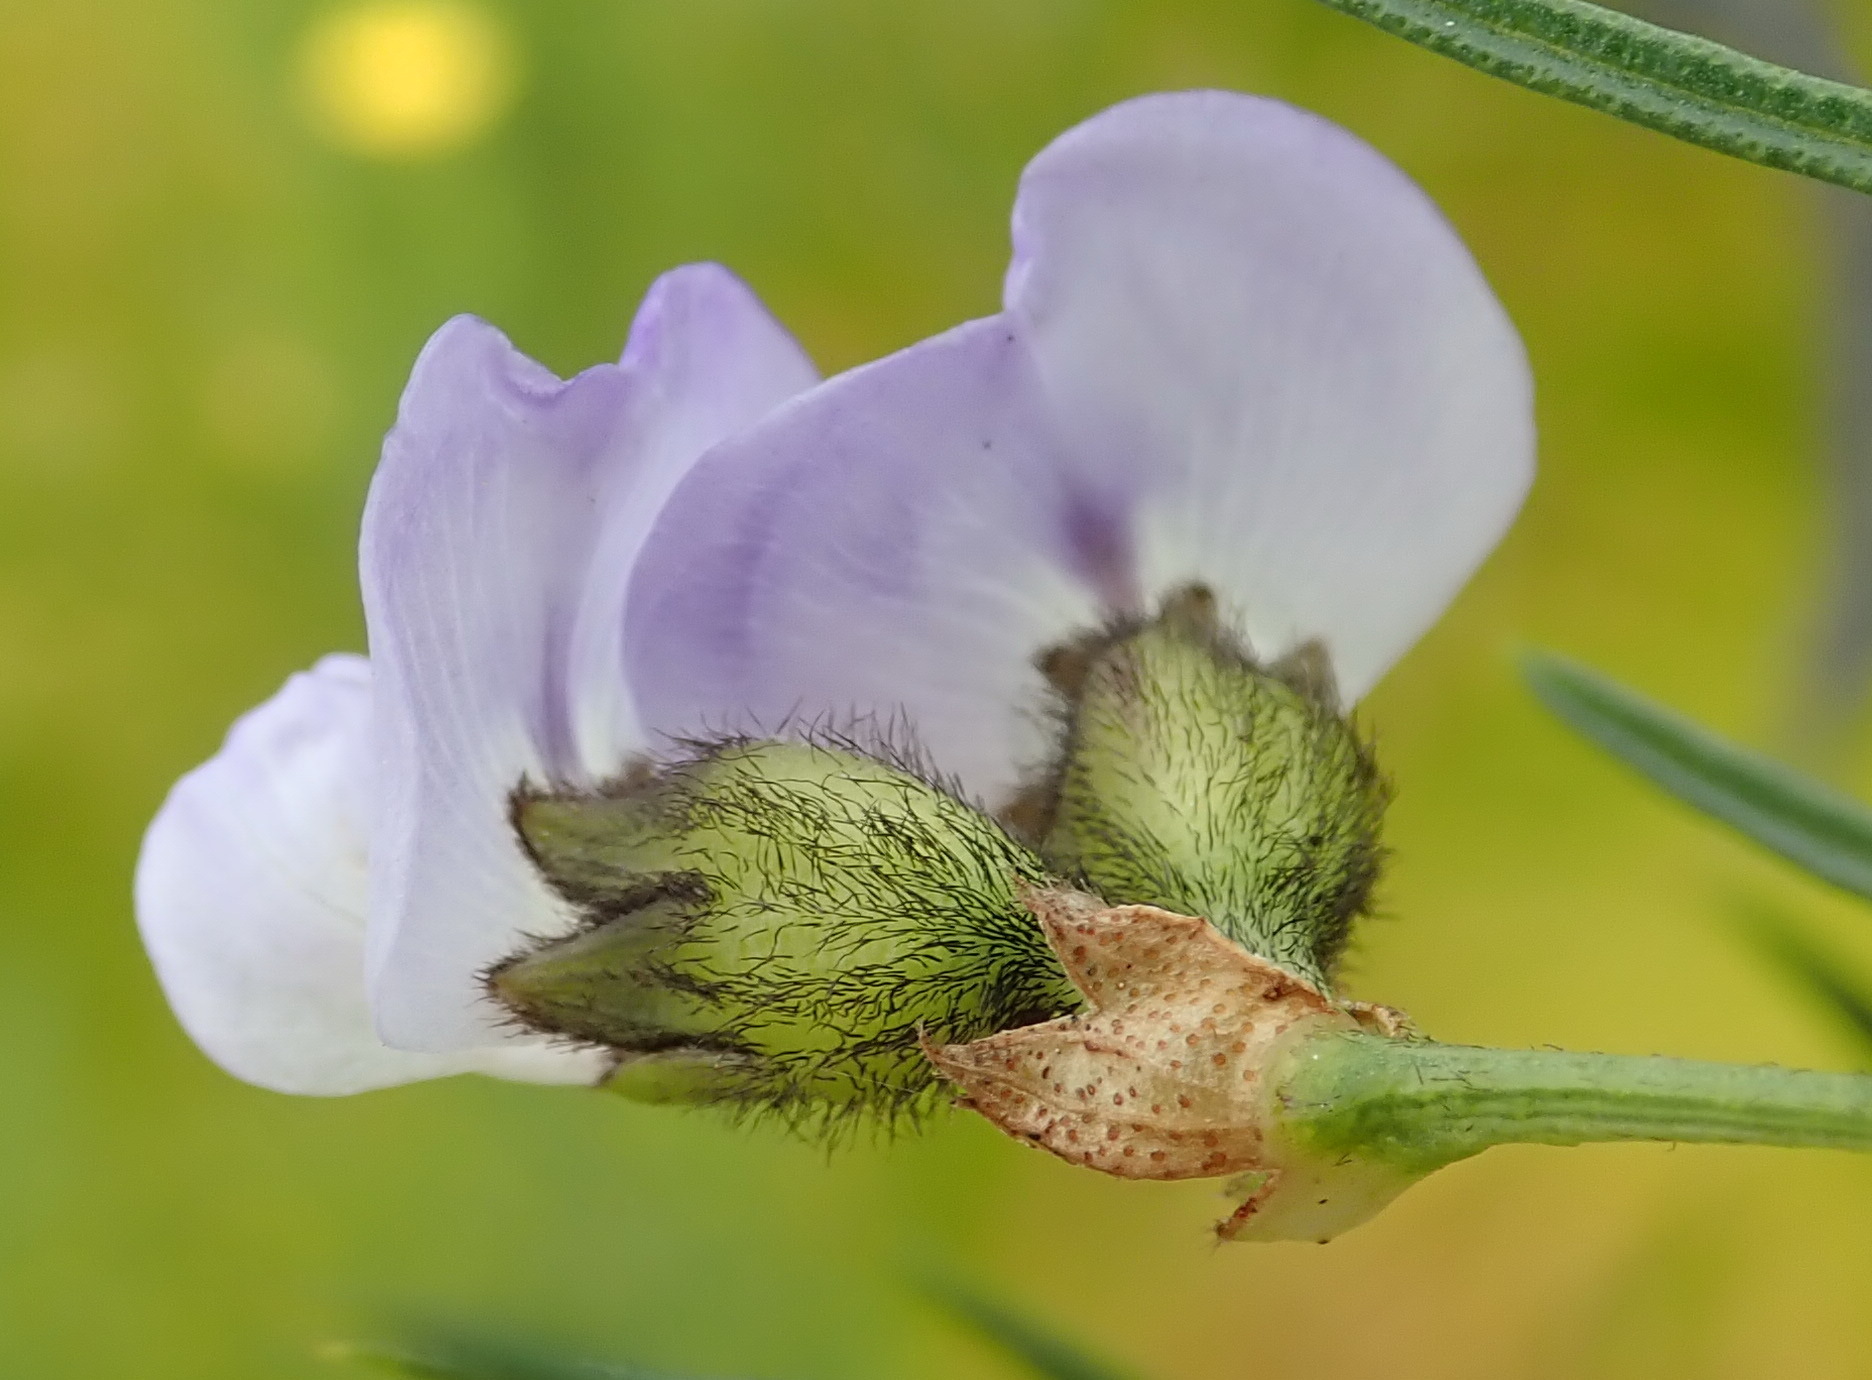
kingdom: Plantae
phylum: Tracheophyta
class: Magnoliopsida
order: Fabales
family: Fabaceae
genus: Psoralea
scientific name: Psoralea affinis
